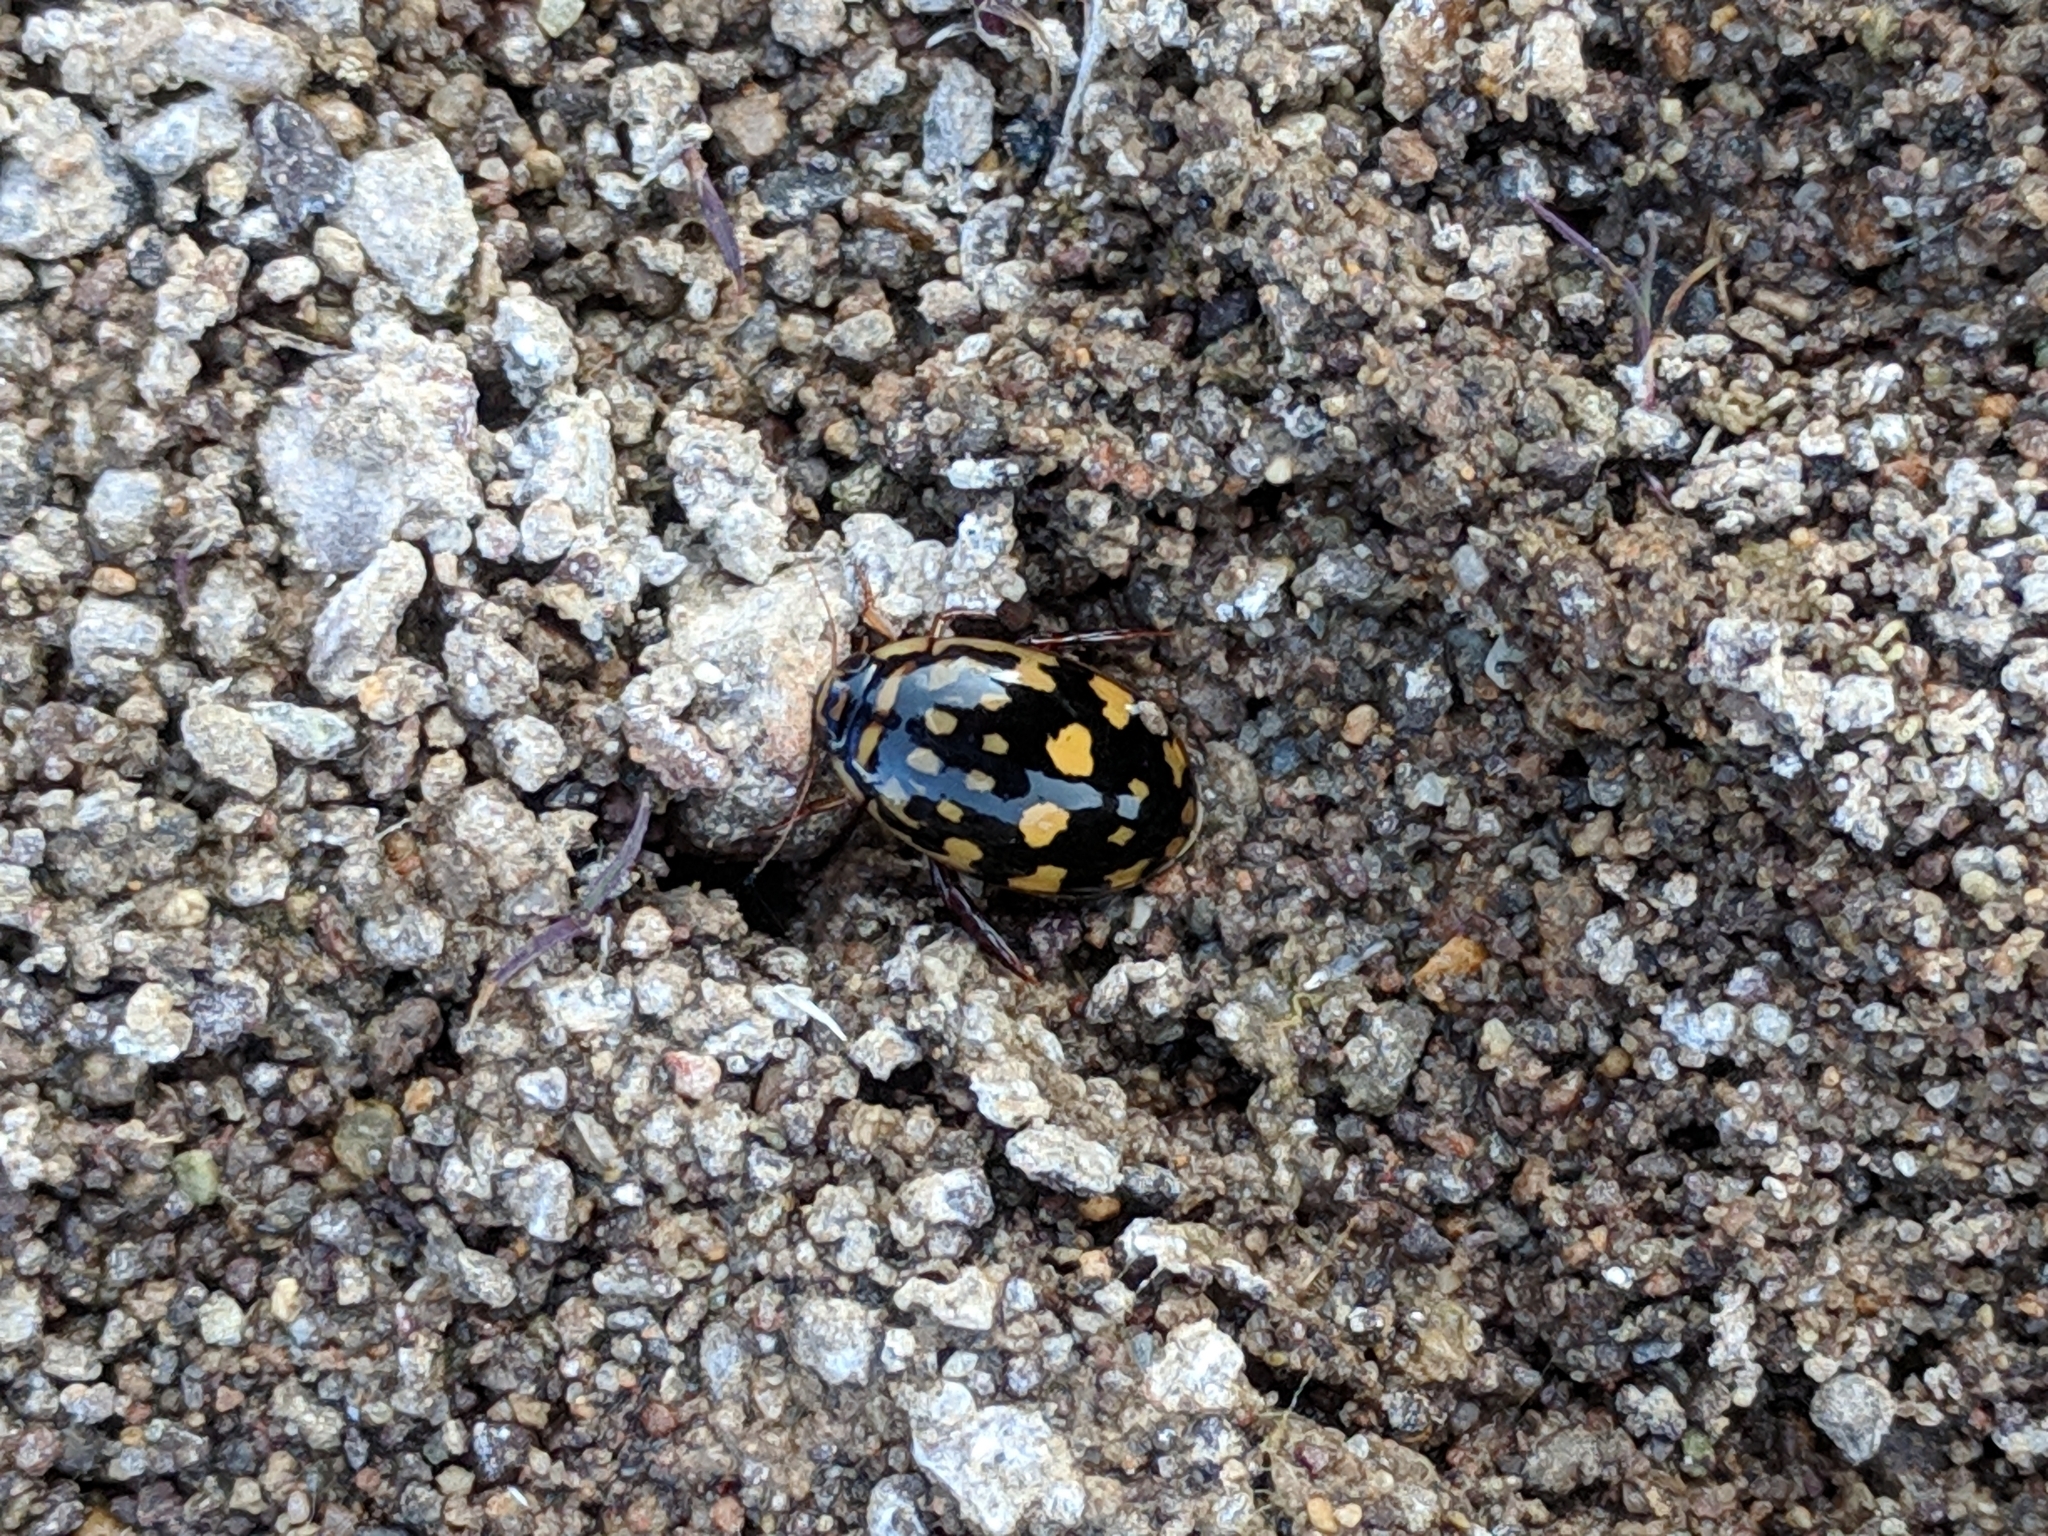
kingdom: Animalia
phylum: Arthropoda
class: Insecta
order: Coleoptera
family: Dytiscidae
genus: Thermonectus
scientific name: Thermonectus marmoratus
